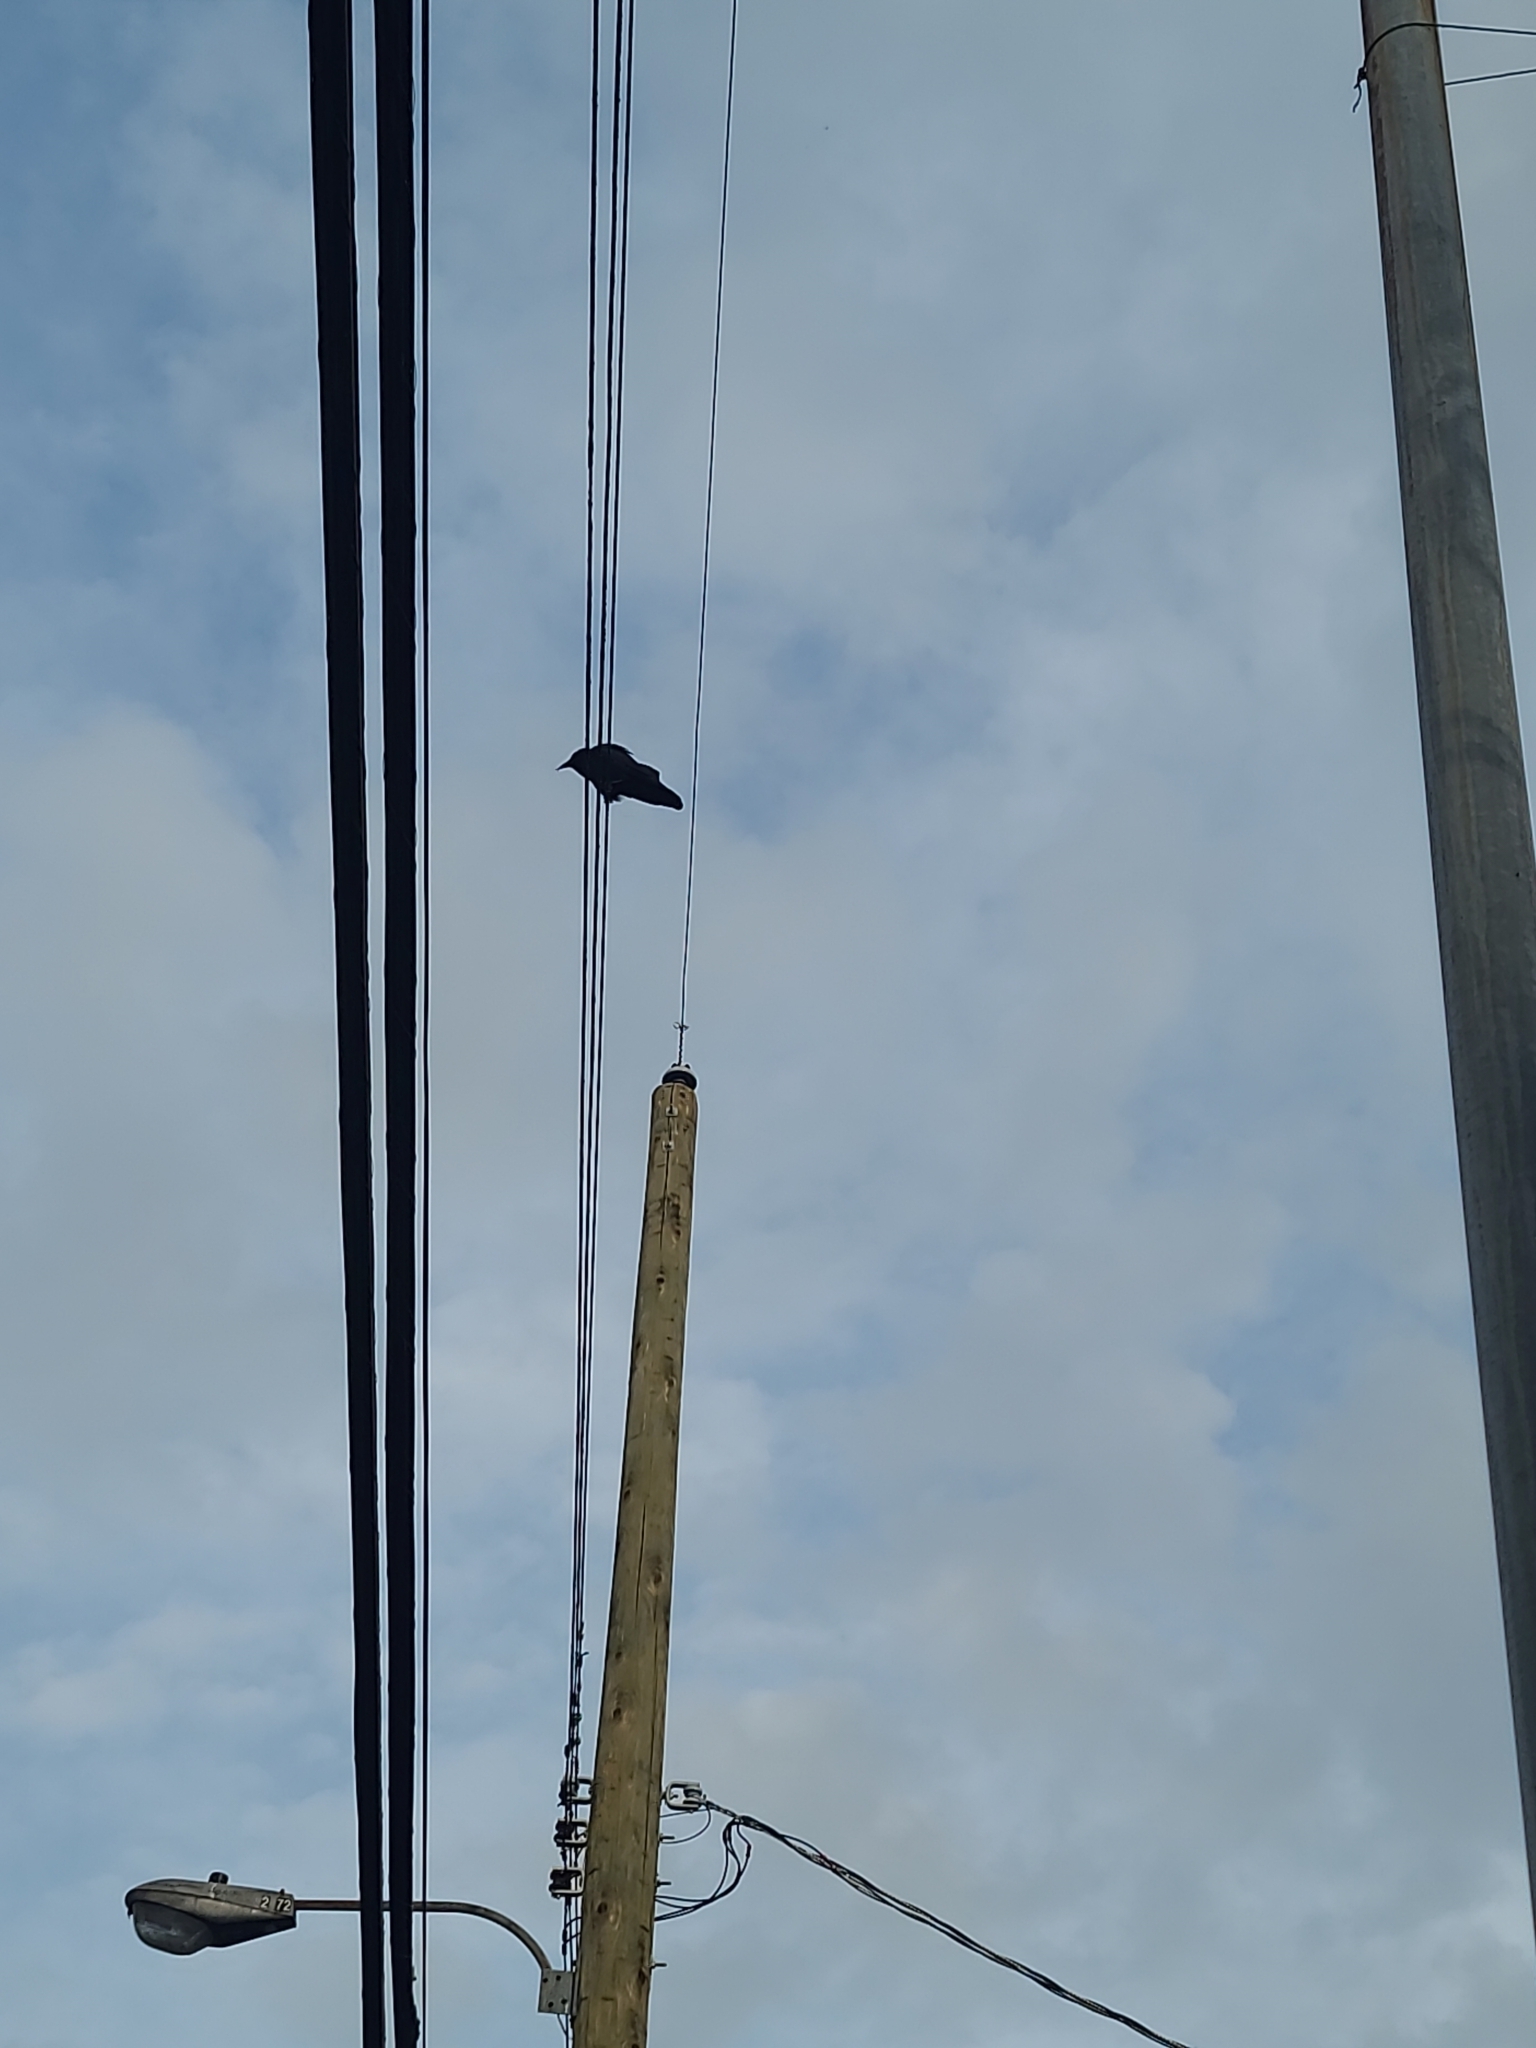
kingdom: Animalia
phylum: Chordata
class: Aves
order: Passeriformes
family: Corvidae
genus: Corvus
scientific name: Corvus brachyrhynchos
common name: American crow
